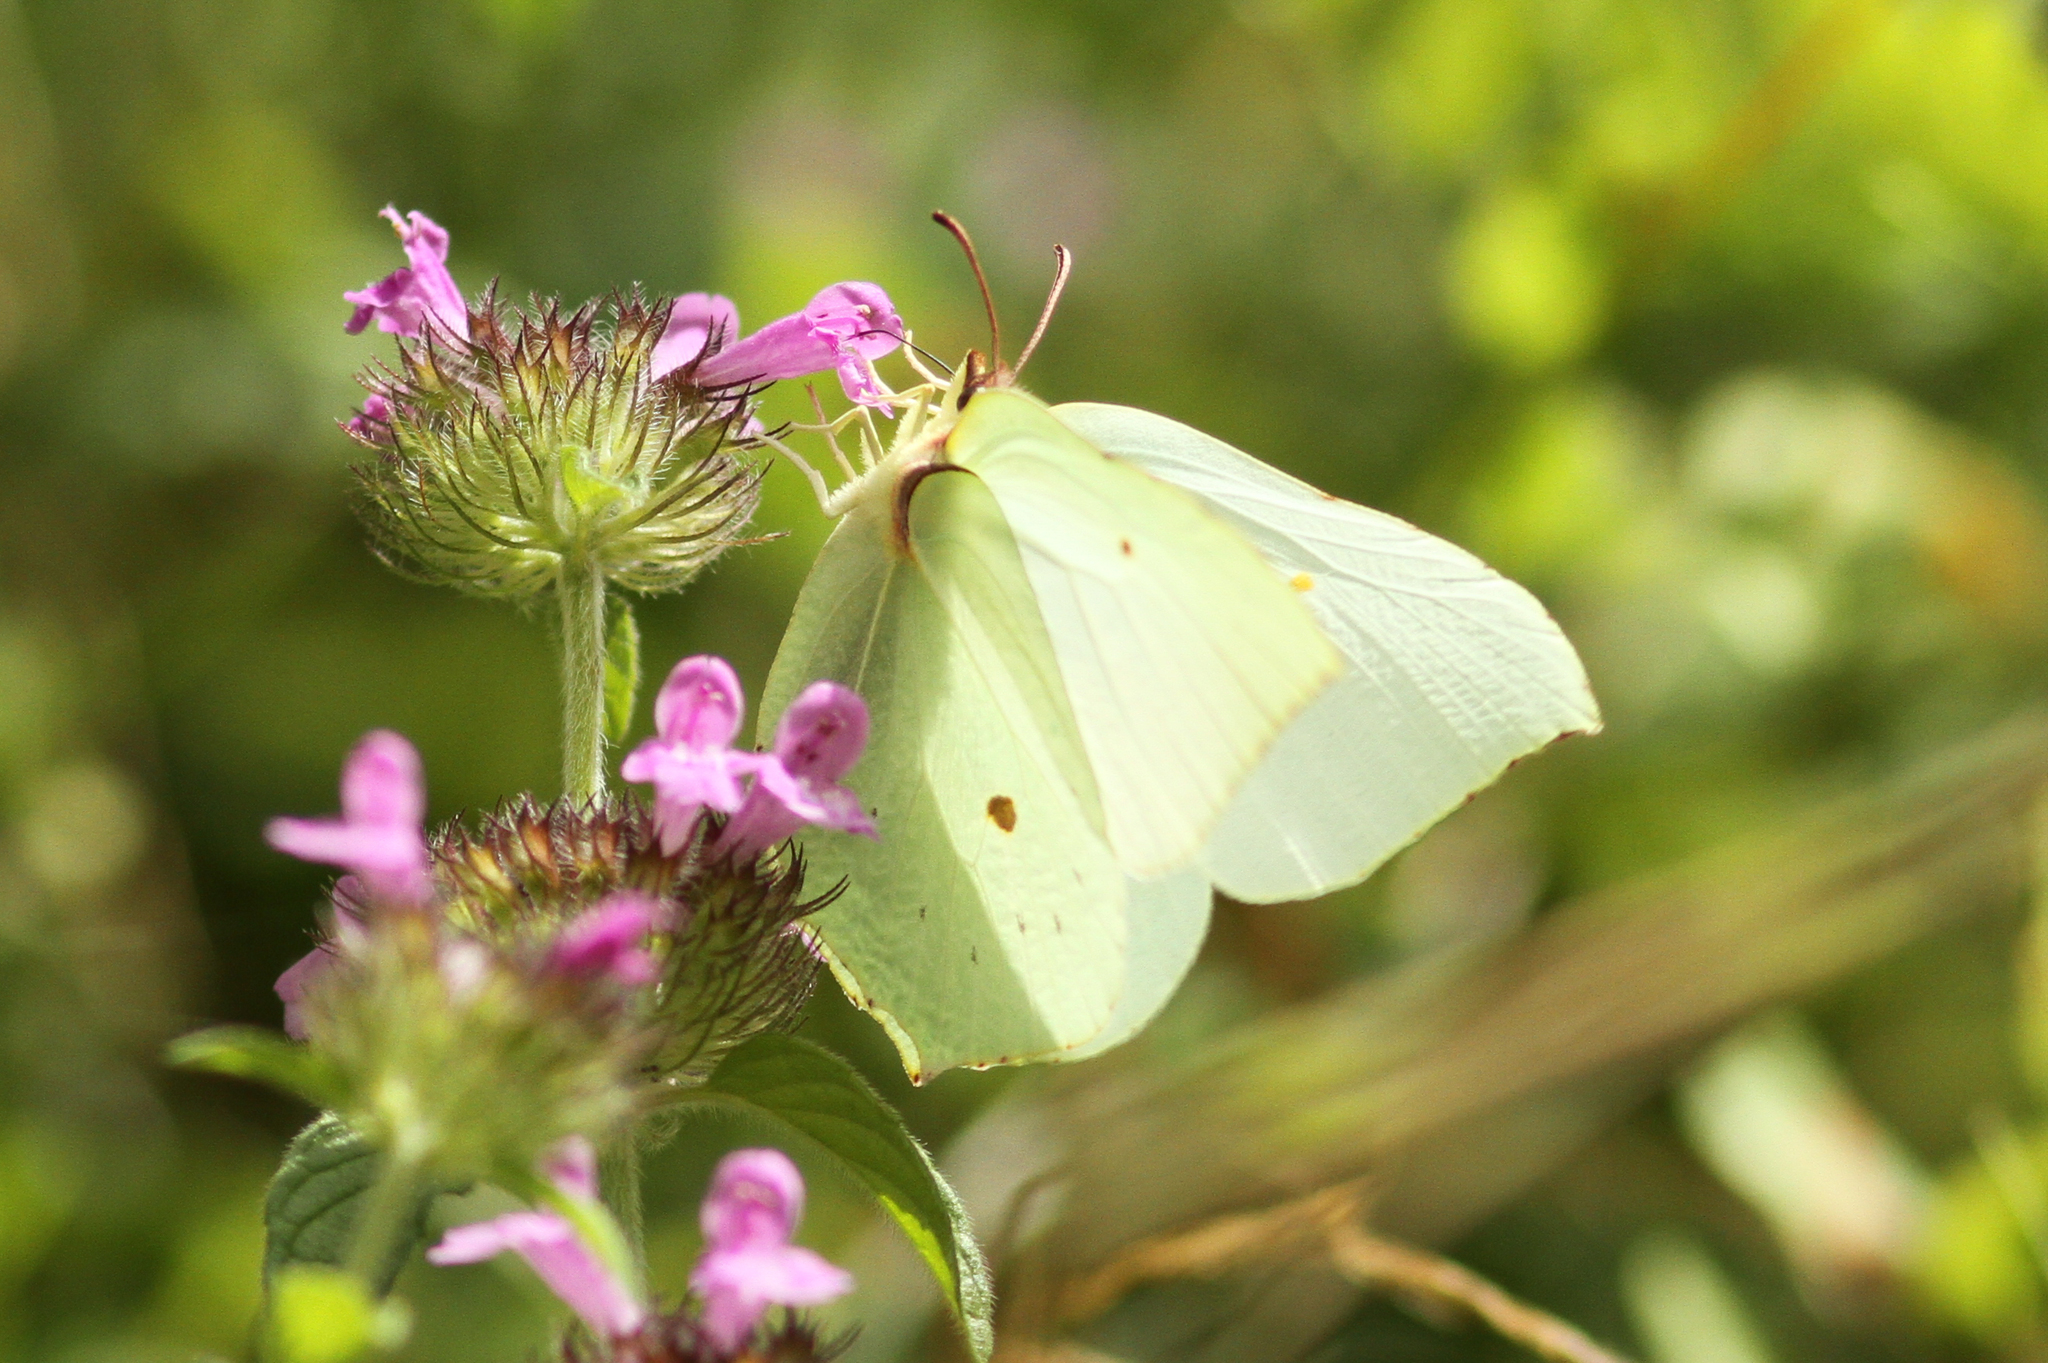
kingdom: Animalia
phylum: Arthropoda
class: Insecta
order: Lepidoptera
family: Pieridae
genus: Gonepteryx
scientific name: Gonepteryx rhamni
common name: Brimstone
